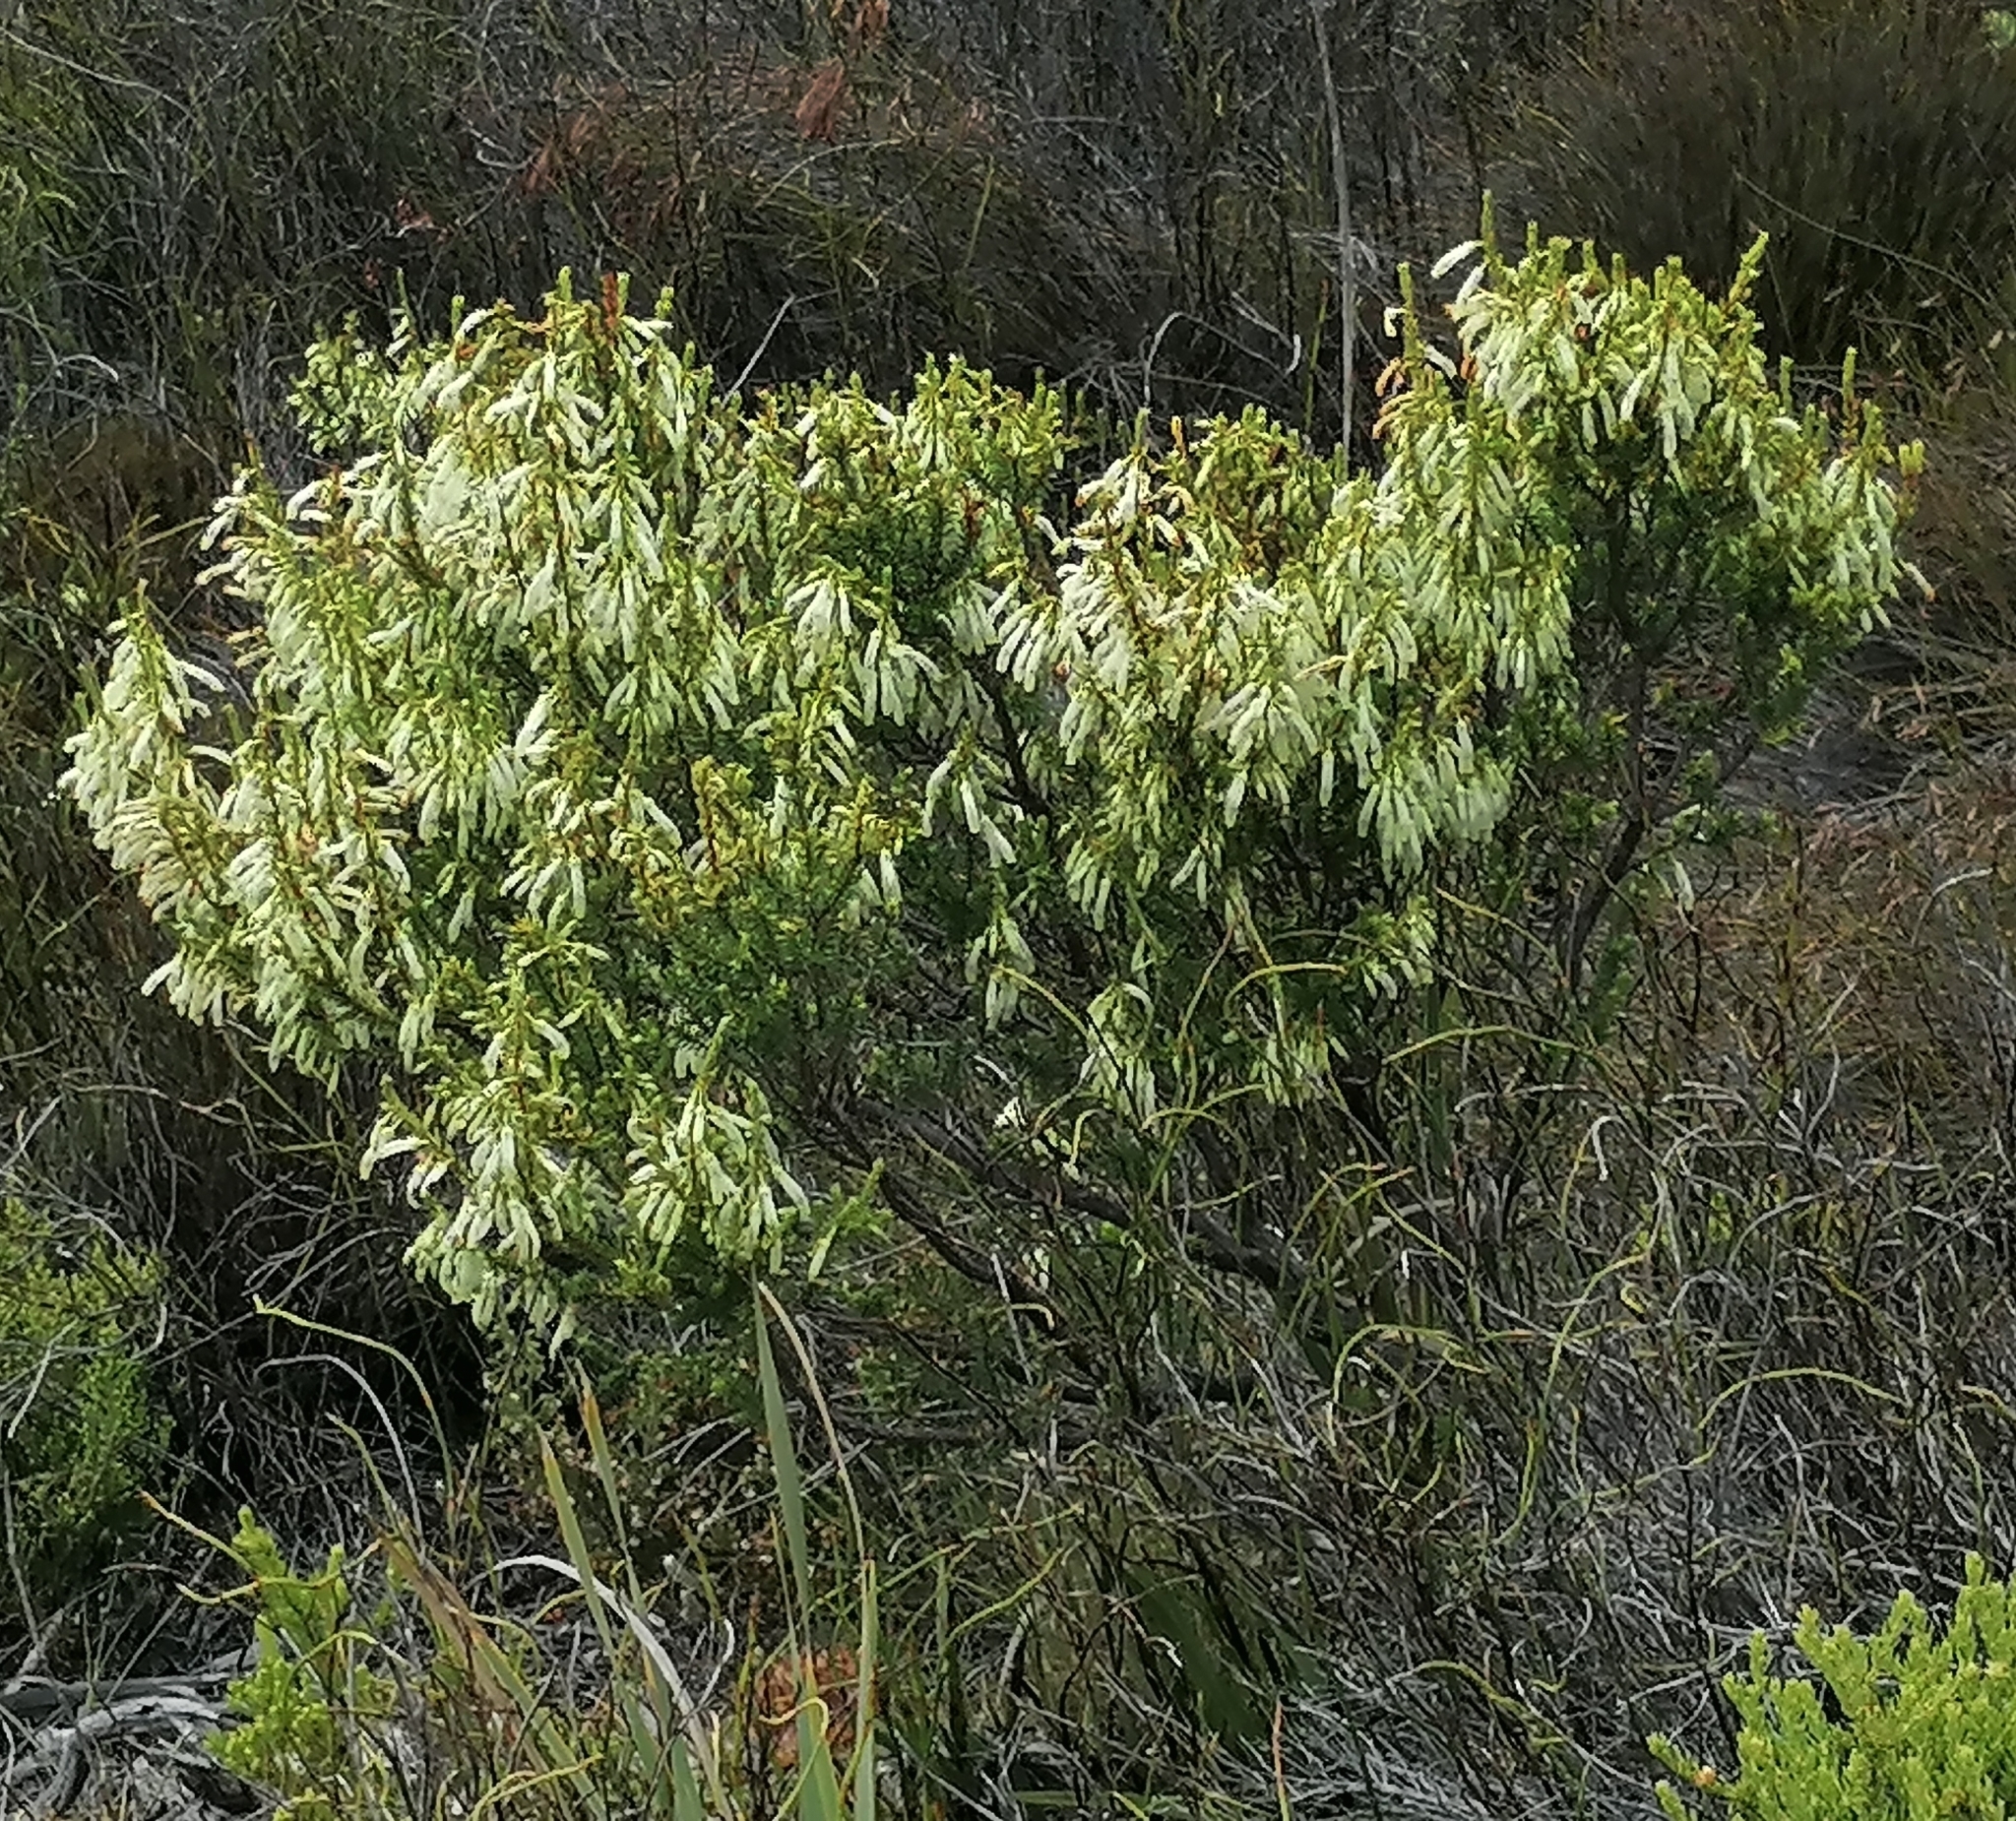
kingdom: Plantae
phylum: Tracheophyta
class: Magnoliopsida
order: Ericales
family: Ericaceae
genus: Erica
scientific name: Erica mammosa
